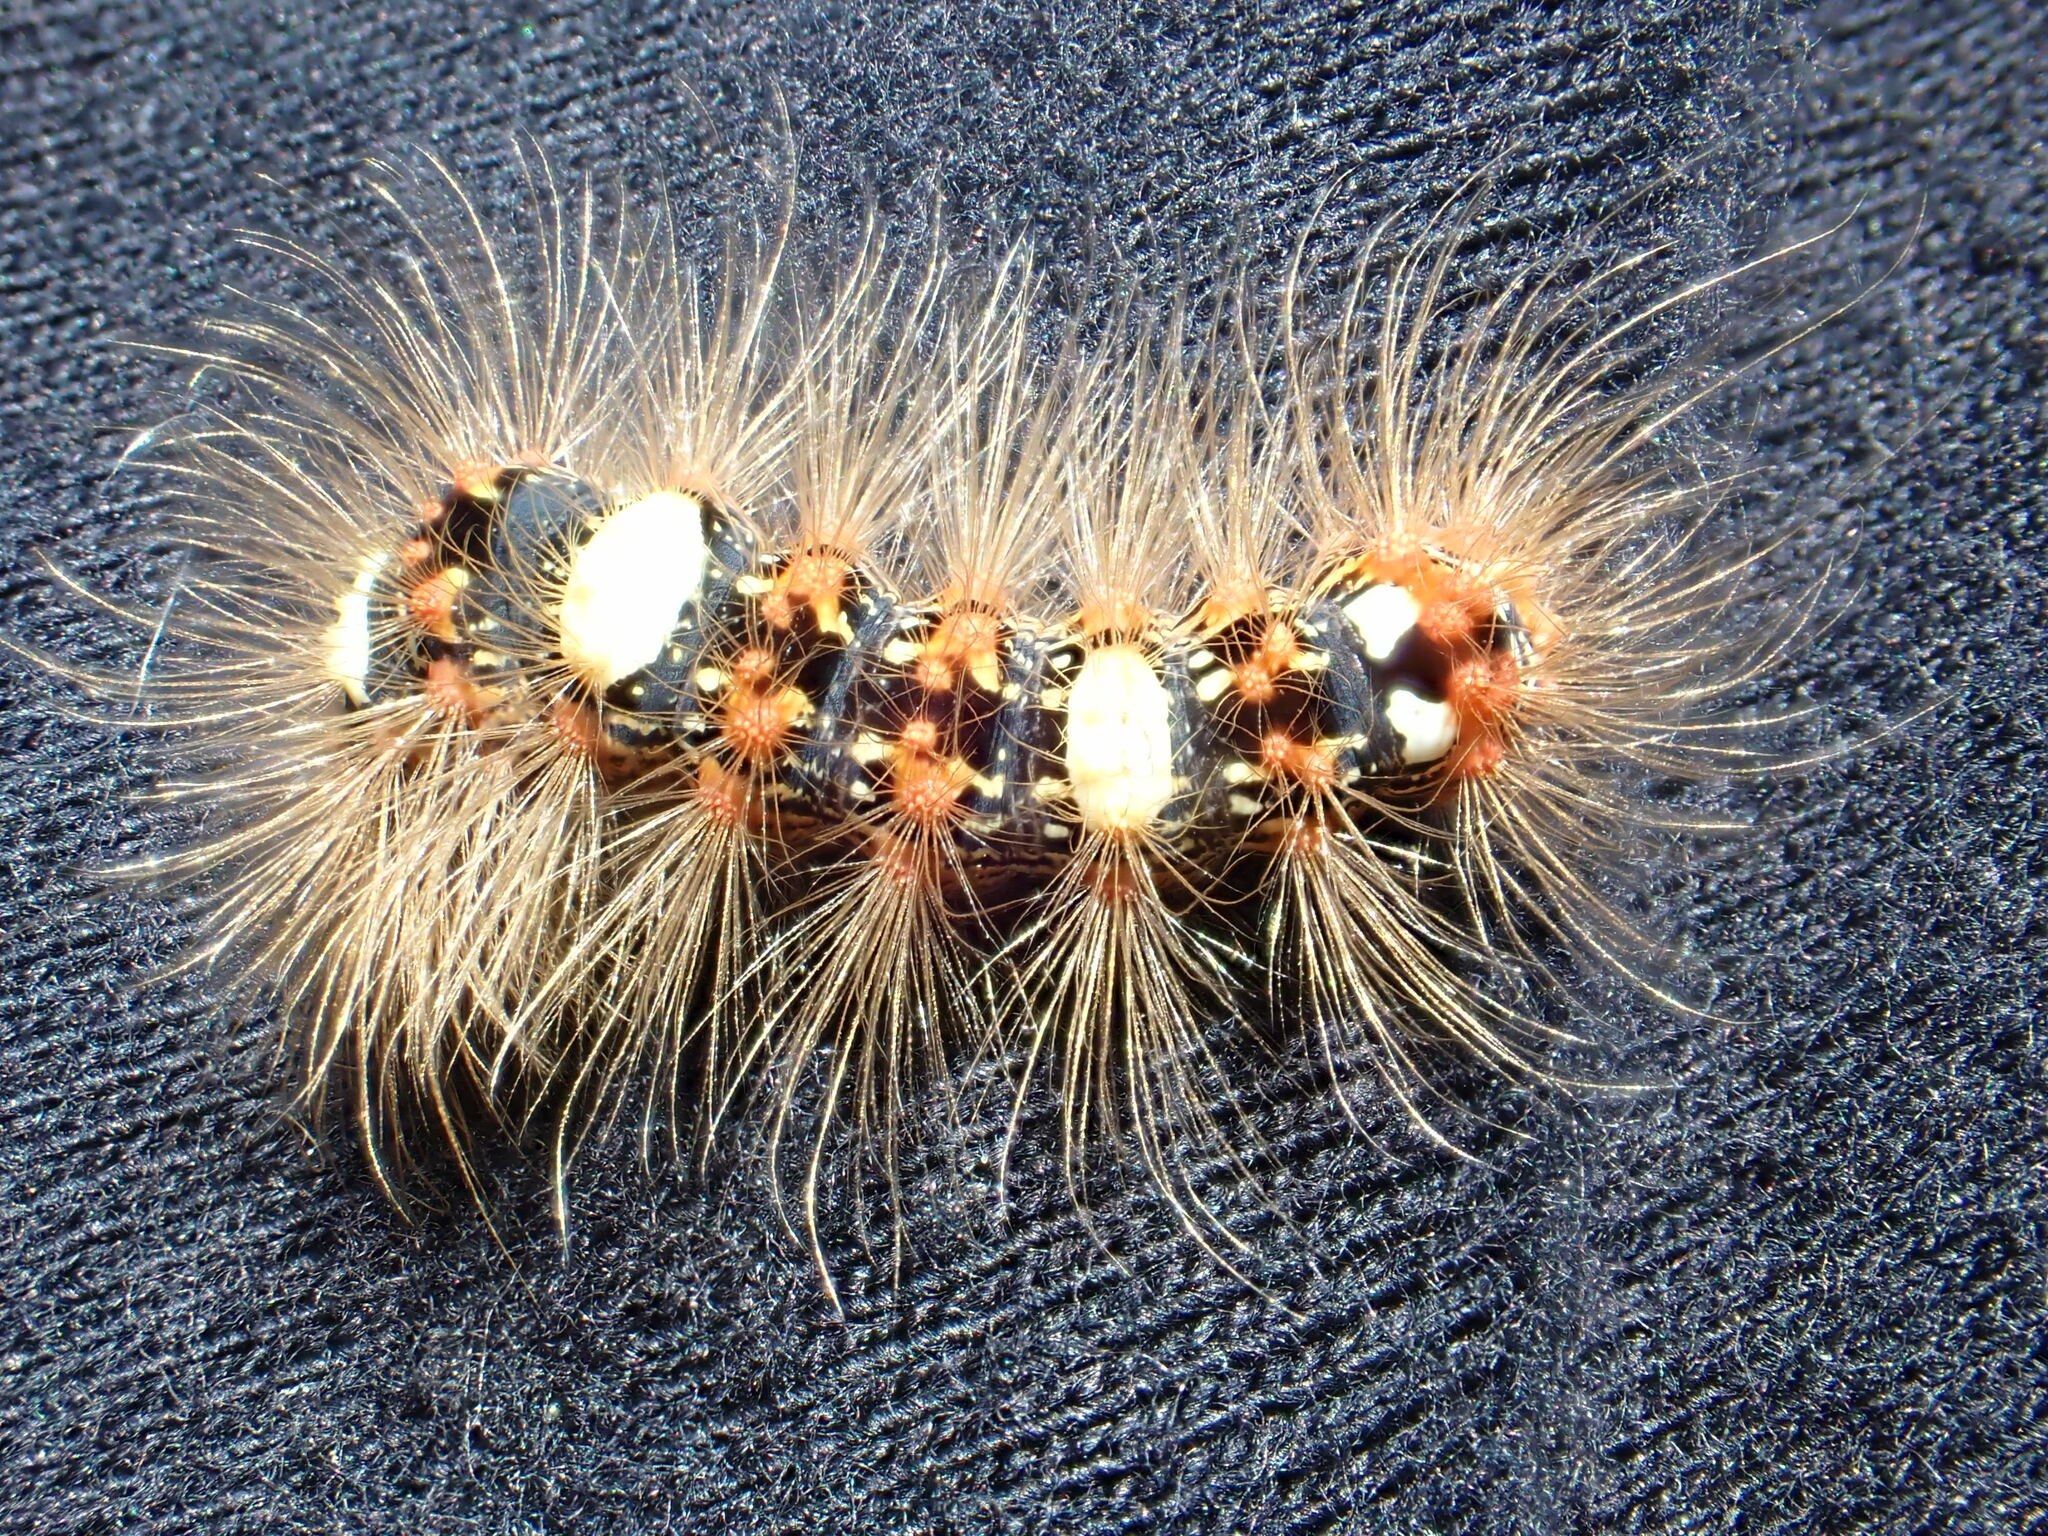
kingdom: Animalia
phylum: Arthropoda
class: Insecta
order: Lepidoptera
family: Noctuidae
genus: Moma
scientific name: Moma alpium
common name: Scarce merveille du jour
